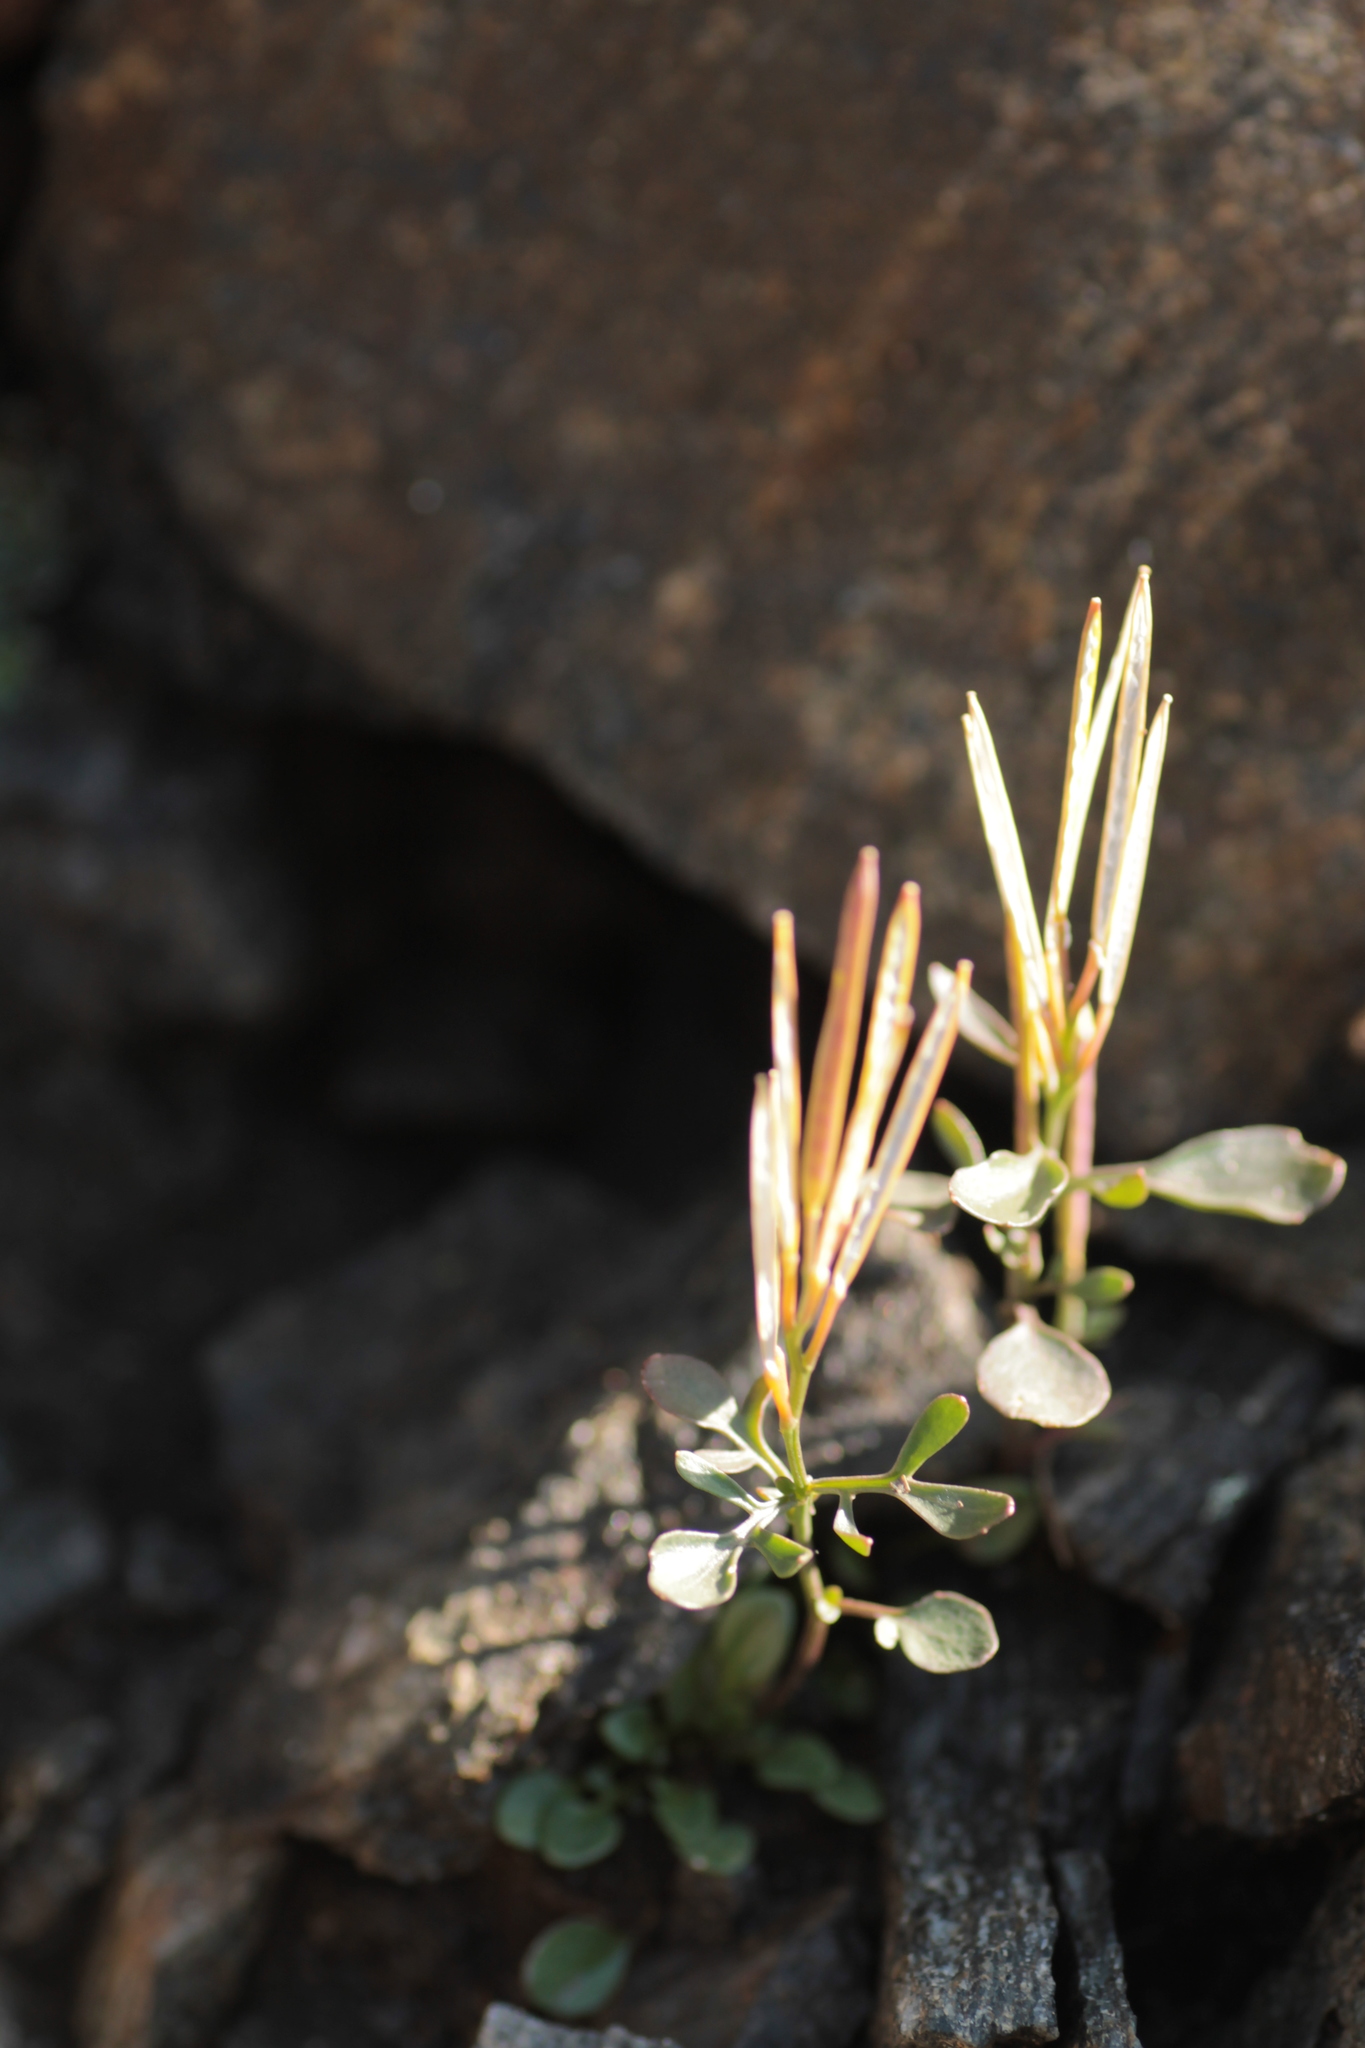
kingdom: Plantae
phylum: Tracheophyta
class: Magnoliopsida
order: Brassicales
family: Brassicaceae
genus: Cardamine
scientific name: Cardamine resedifolia
